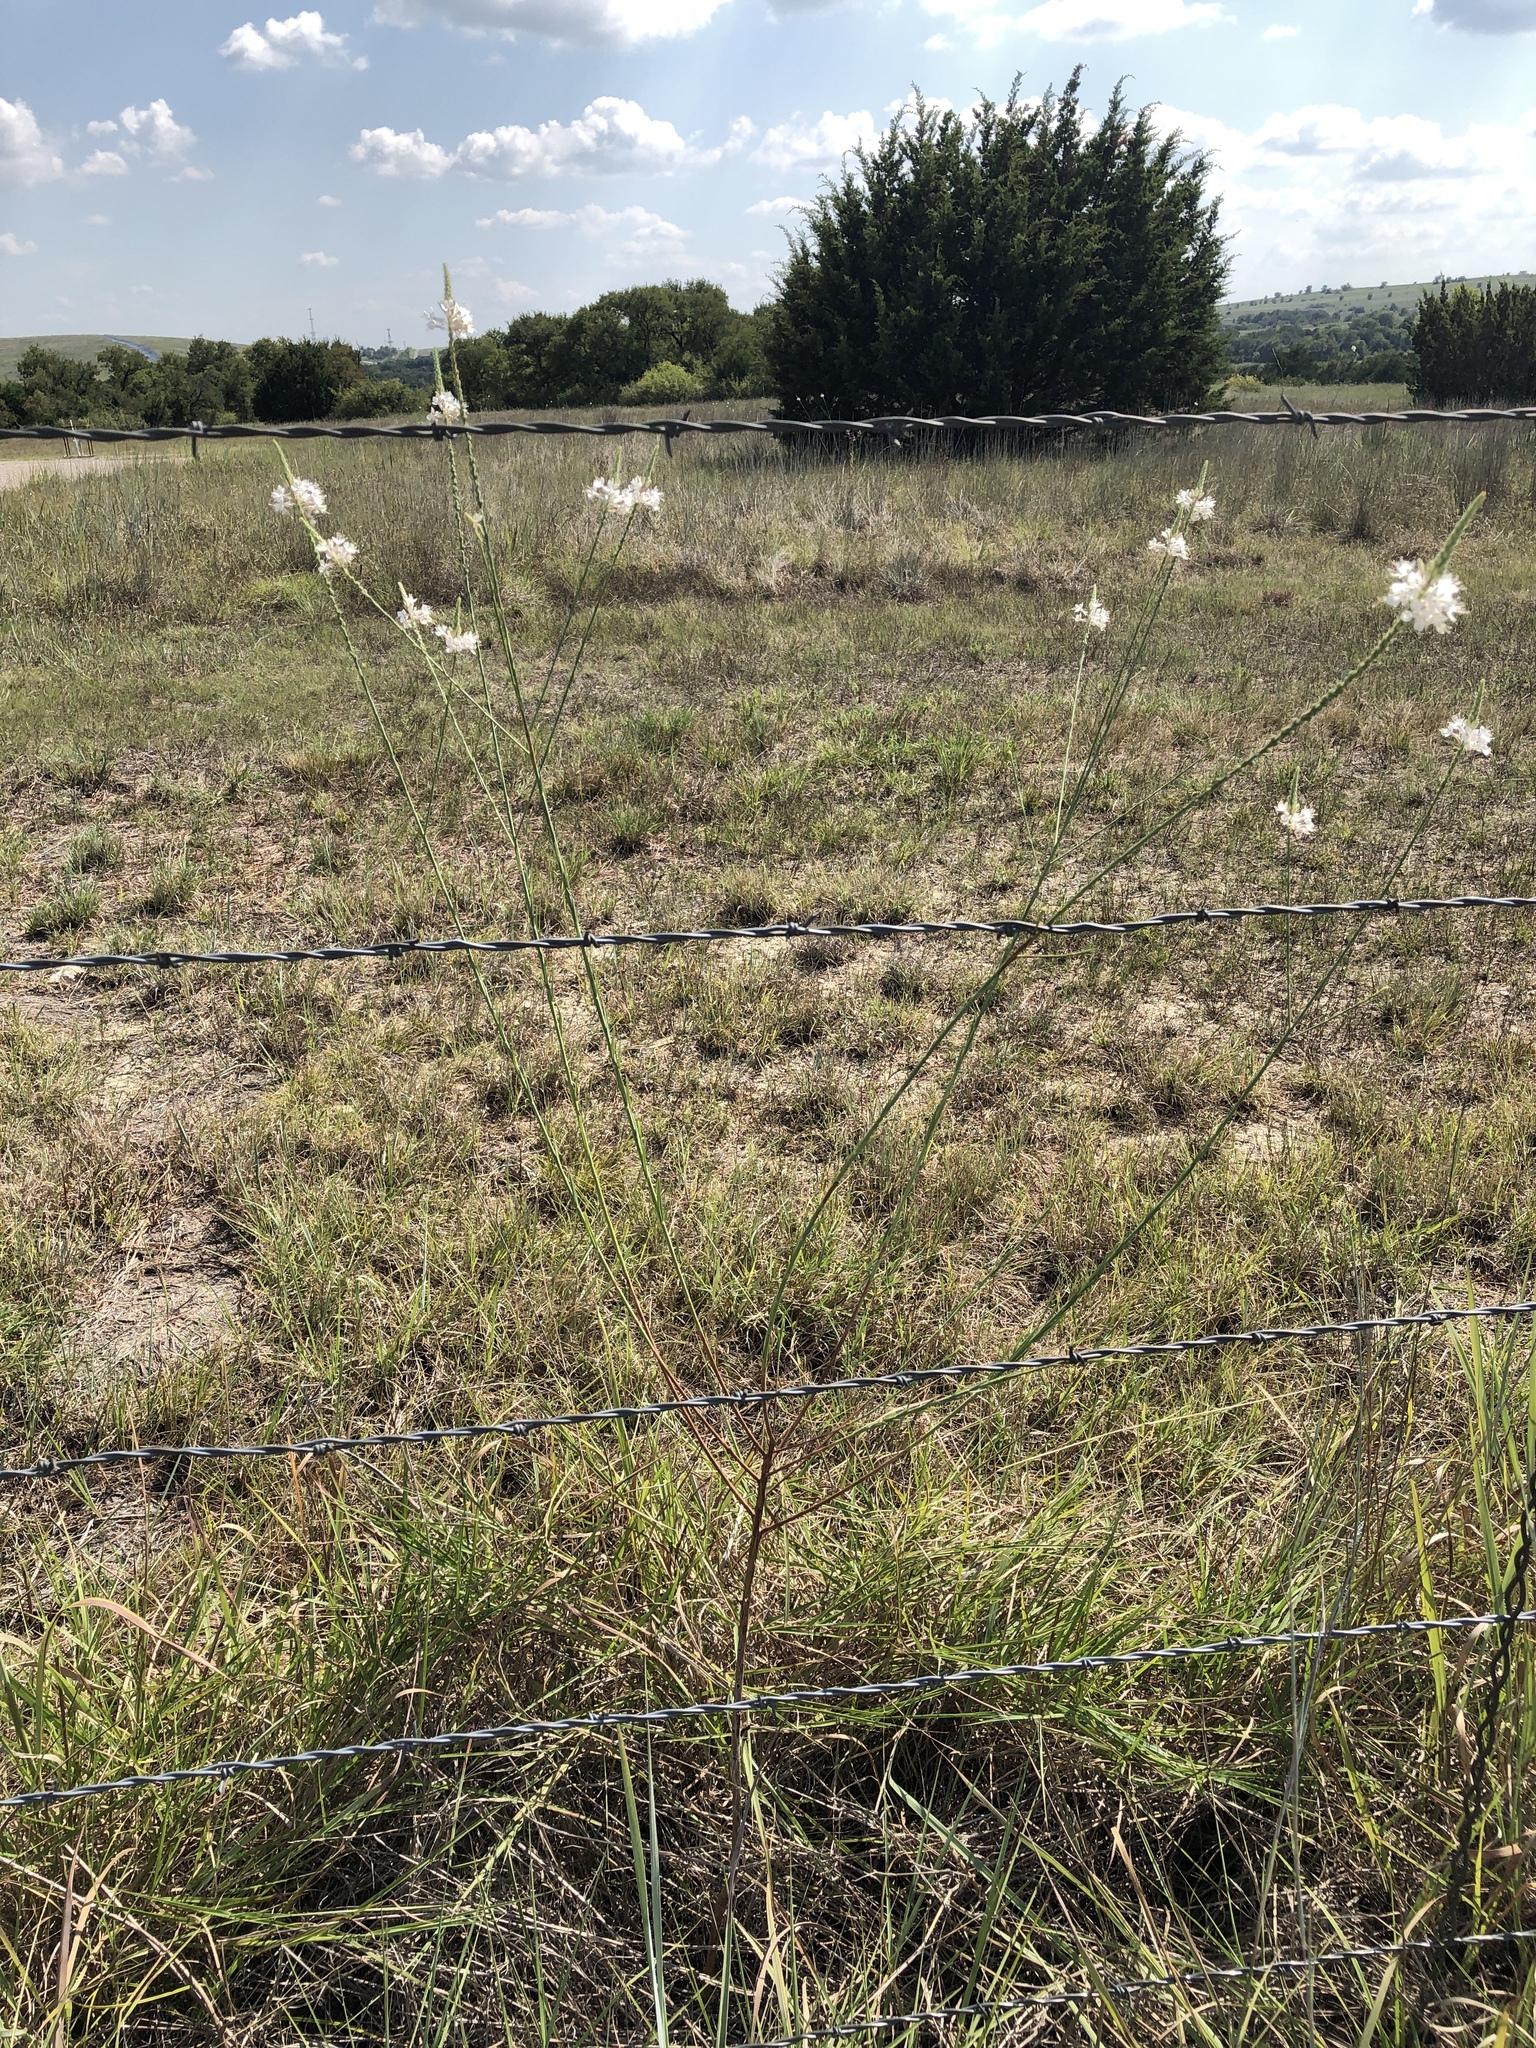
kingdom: Plantae
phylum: Tracheophyta
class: Magnoliopsida
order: Myrtales
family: Onagraceae
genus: Oenothera
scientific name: Oenothera glaucifolia
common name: False gaura
